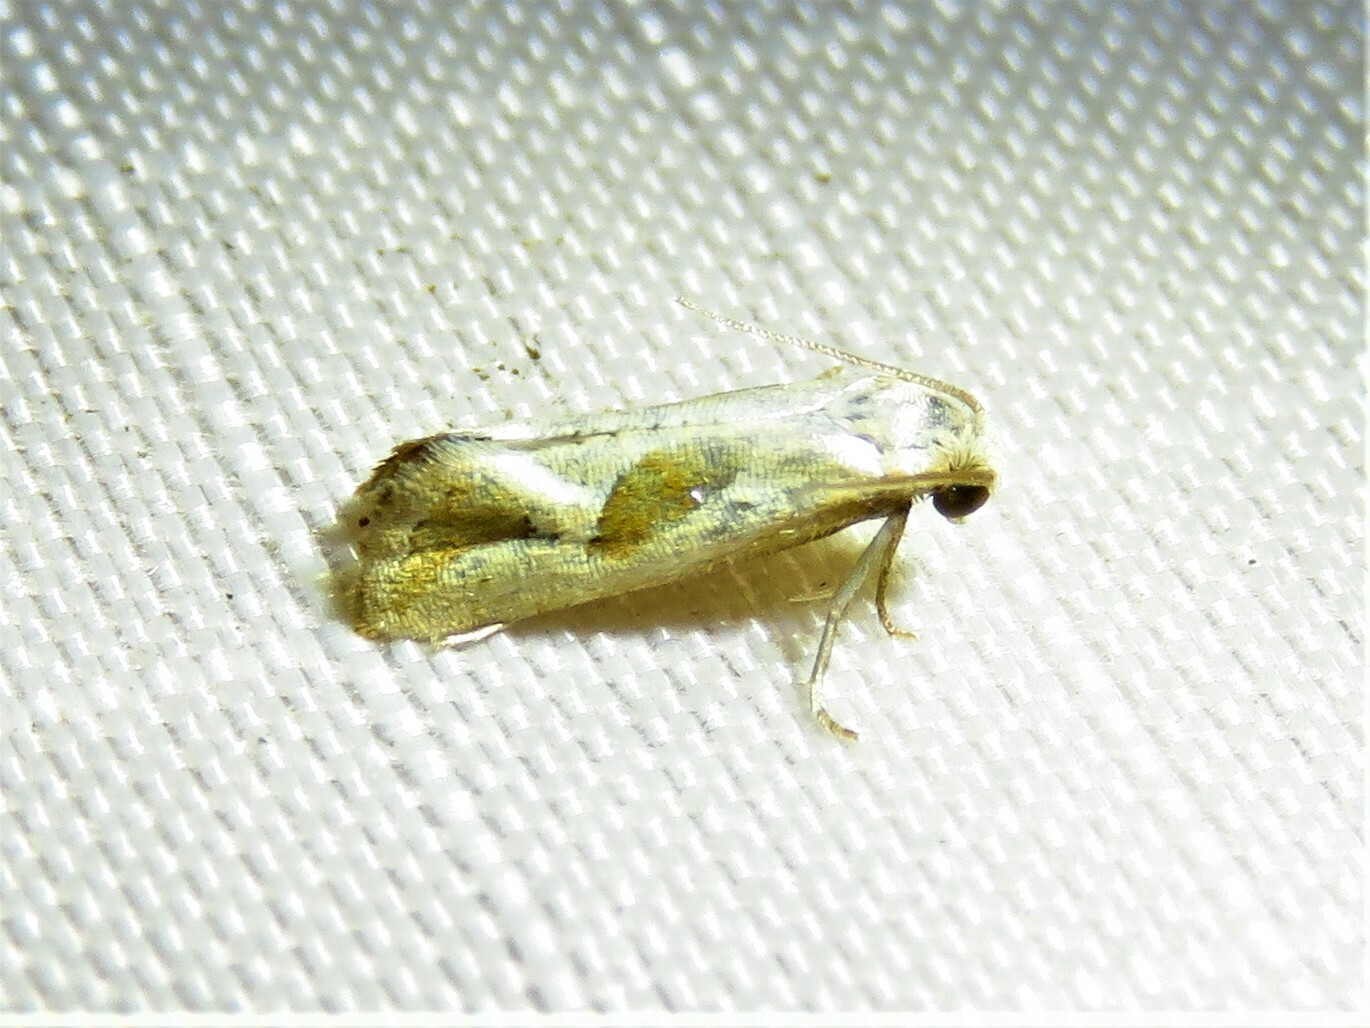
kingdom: Animalia
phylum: Arthropoda
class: Insecta
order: Lepidoptera
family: Tortricidae
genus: Eugnosta
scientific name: Eugnosta bimaculana
